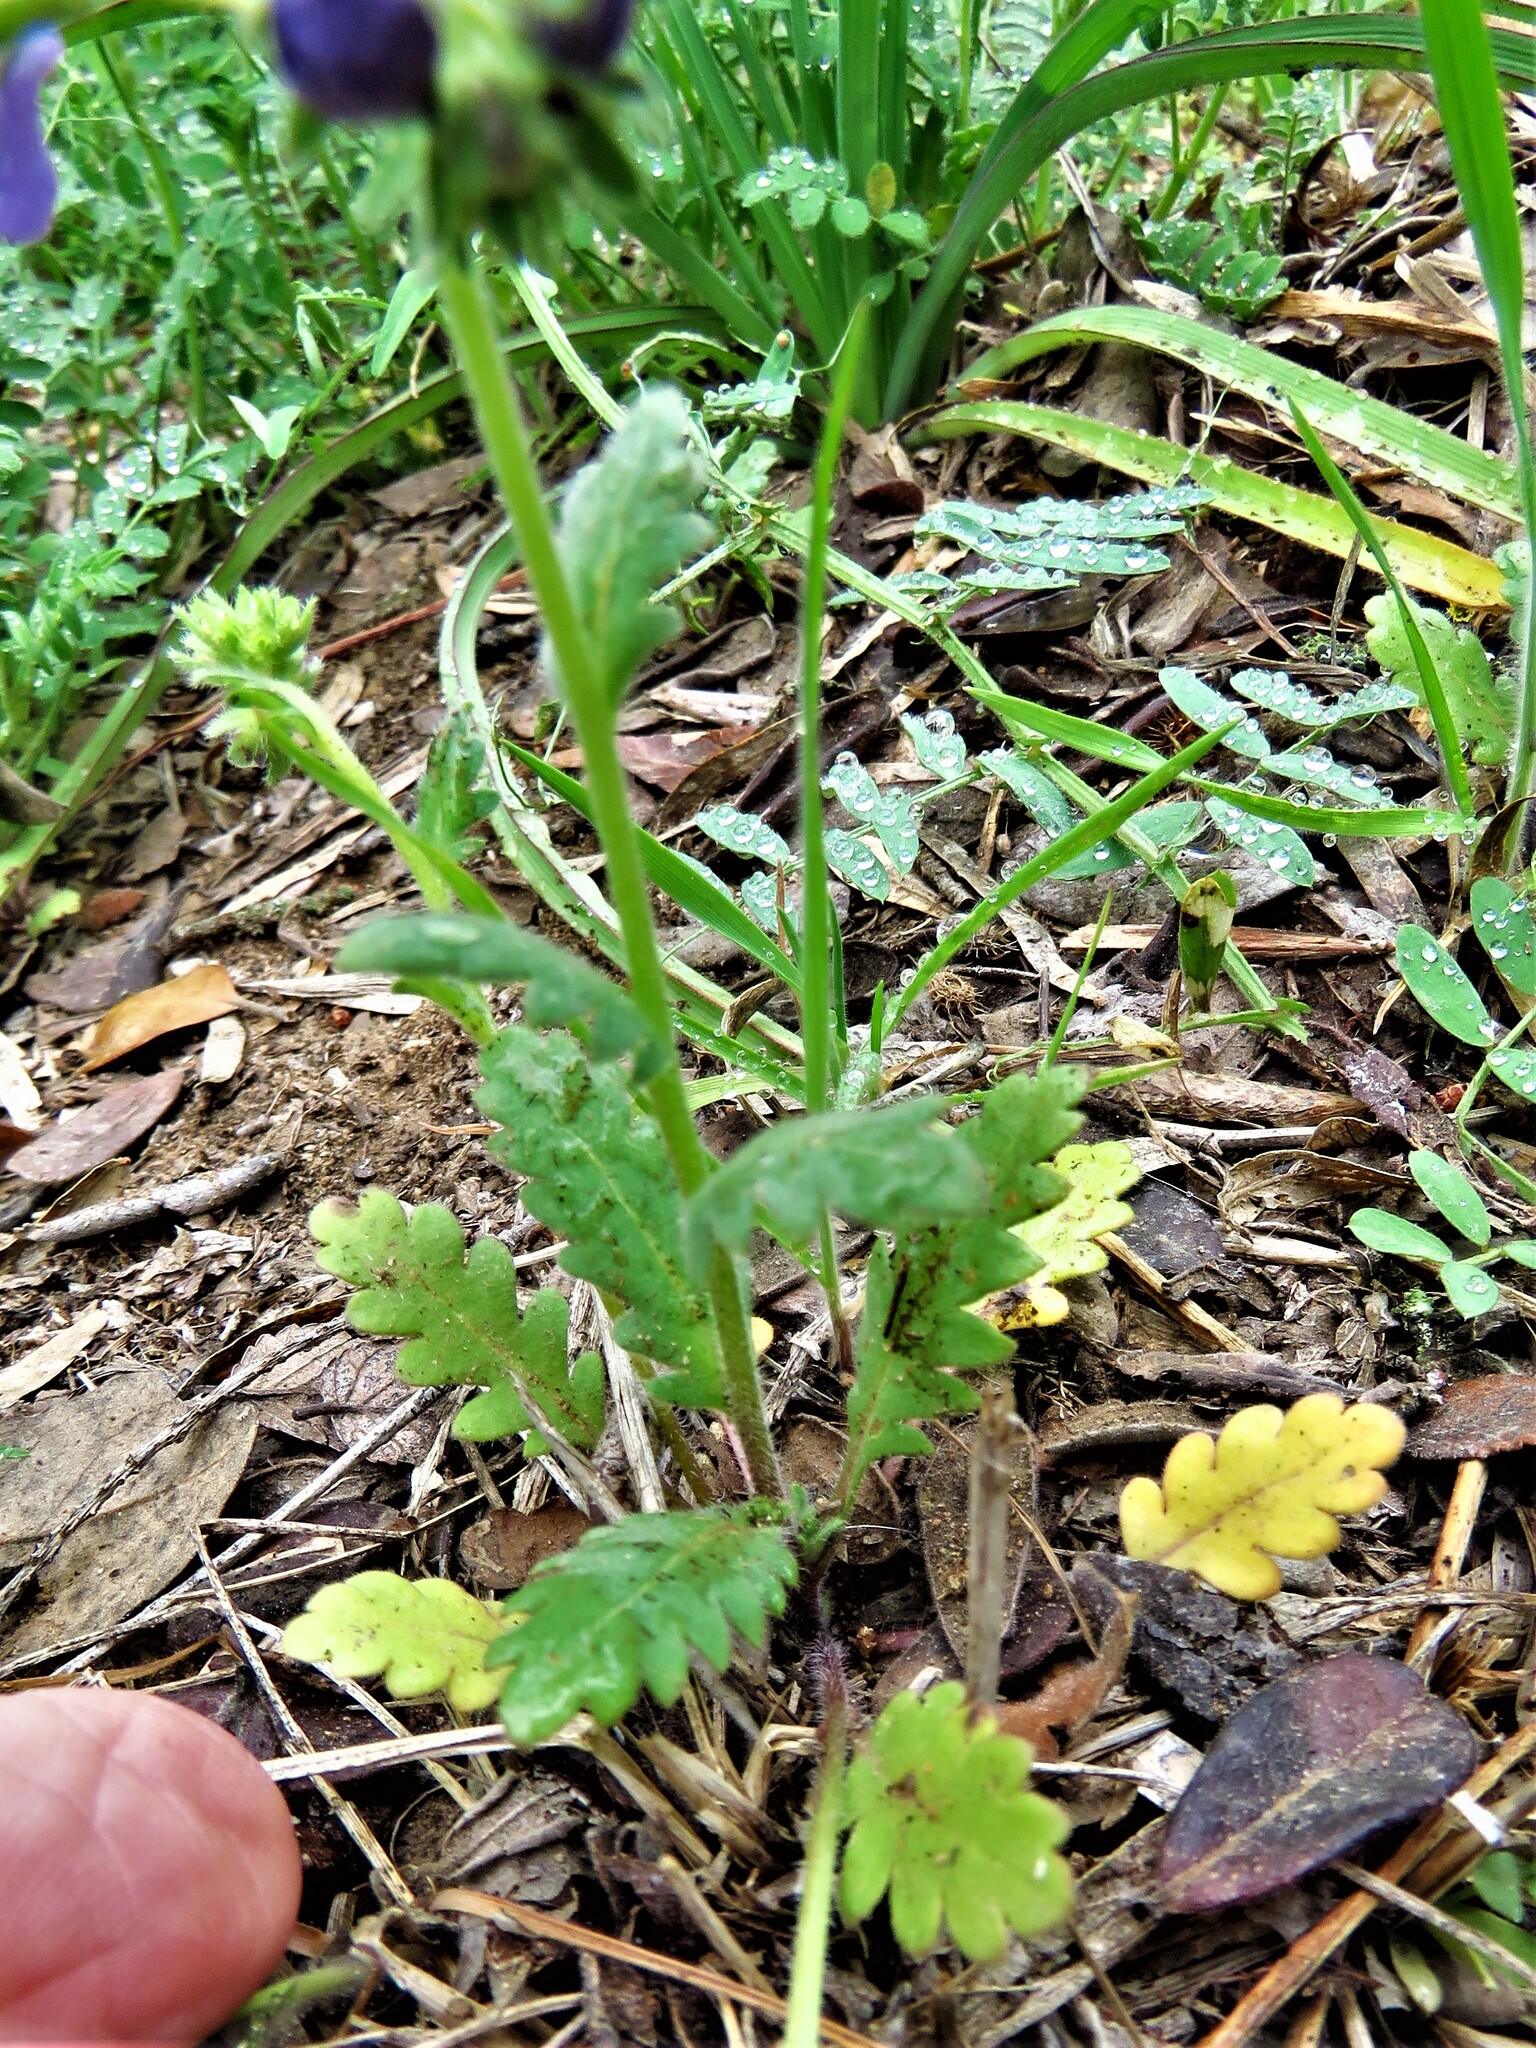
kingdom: Plantae
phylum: Tracheophyta
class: Magnoliopsida
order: Boraginales
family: Hydrophyllaceae
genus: Phacelia
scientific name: Phacelia patuliflora
